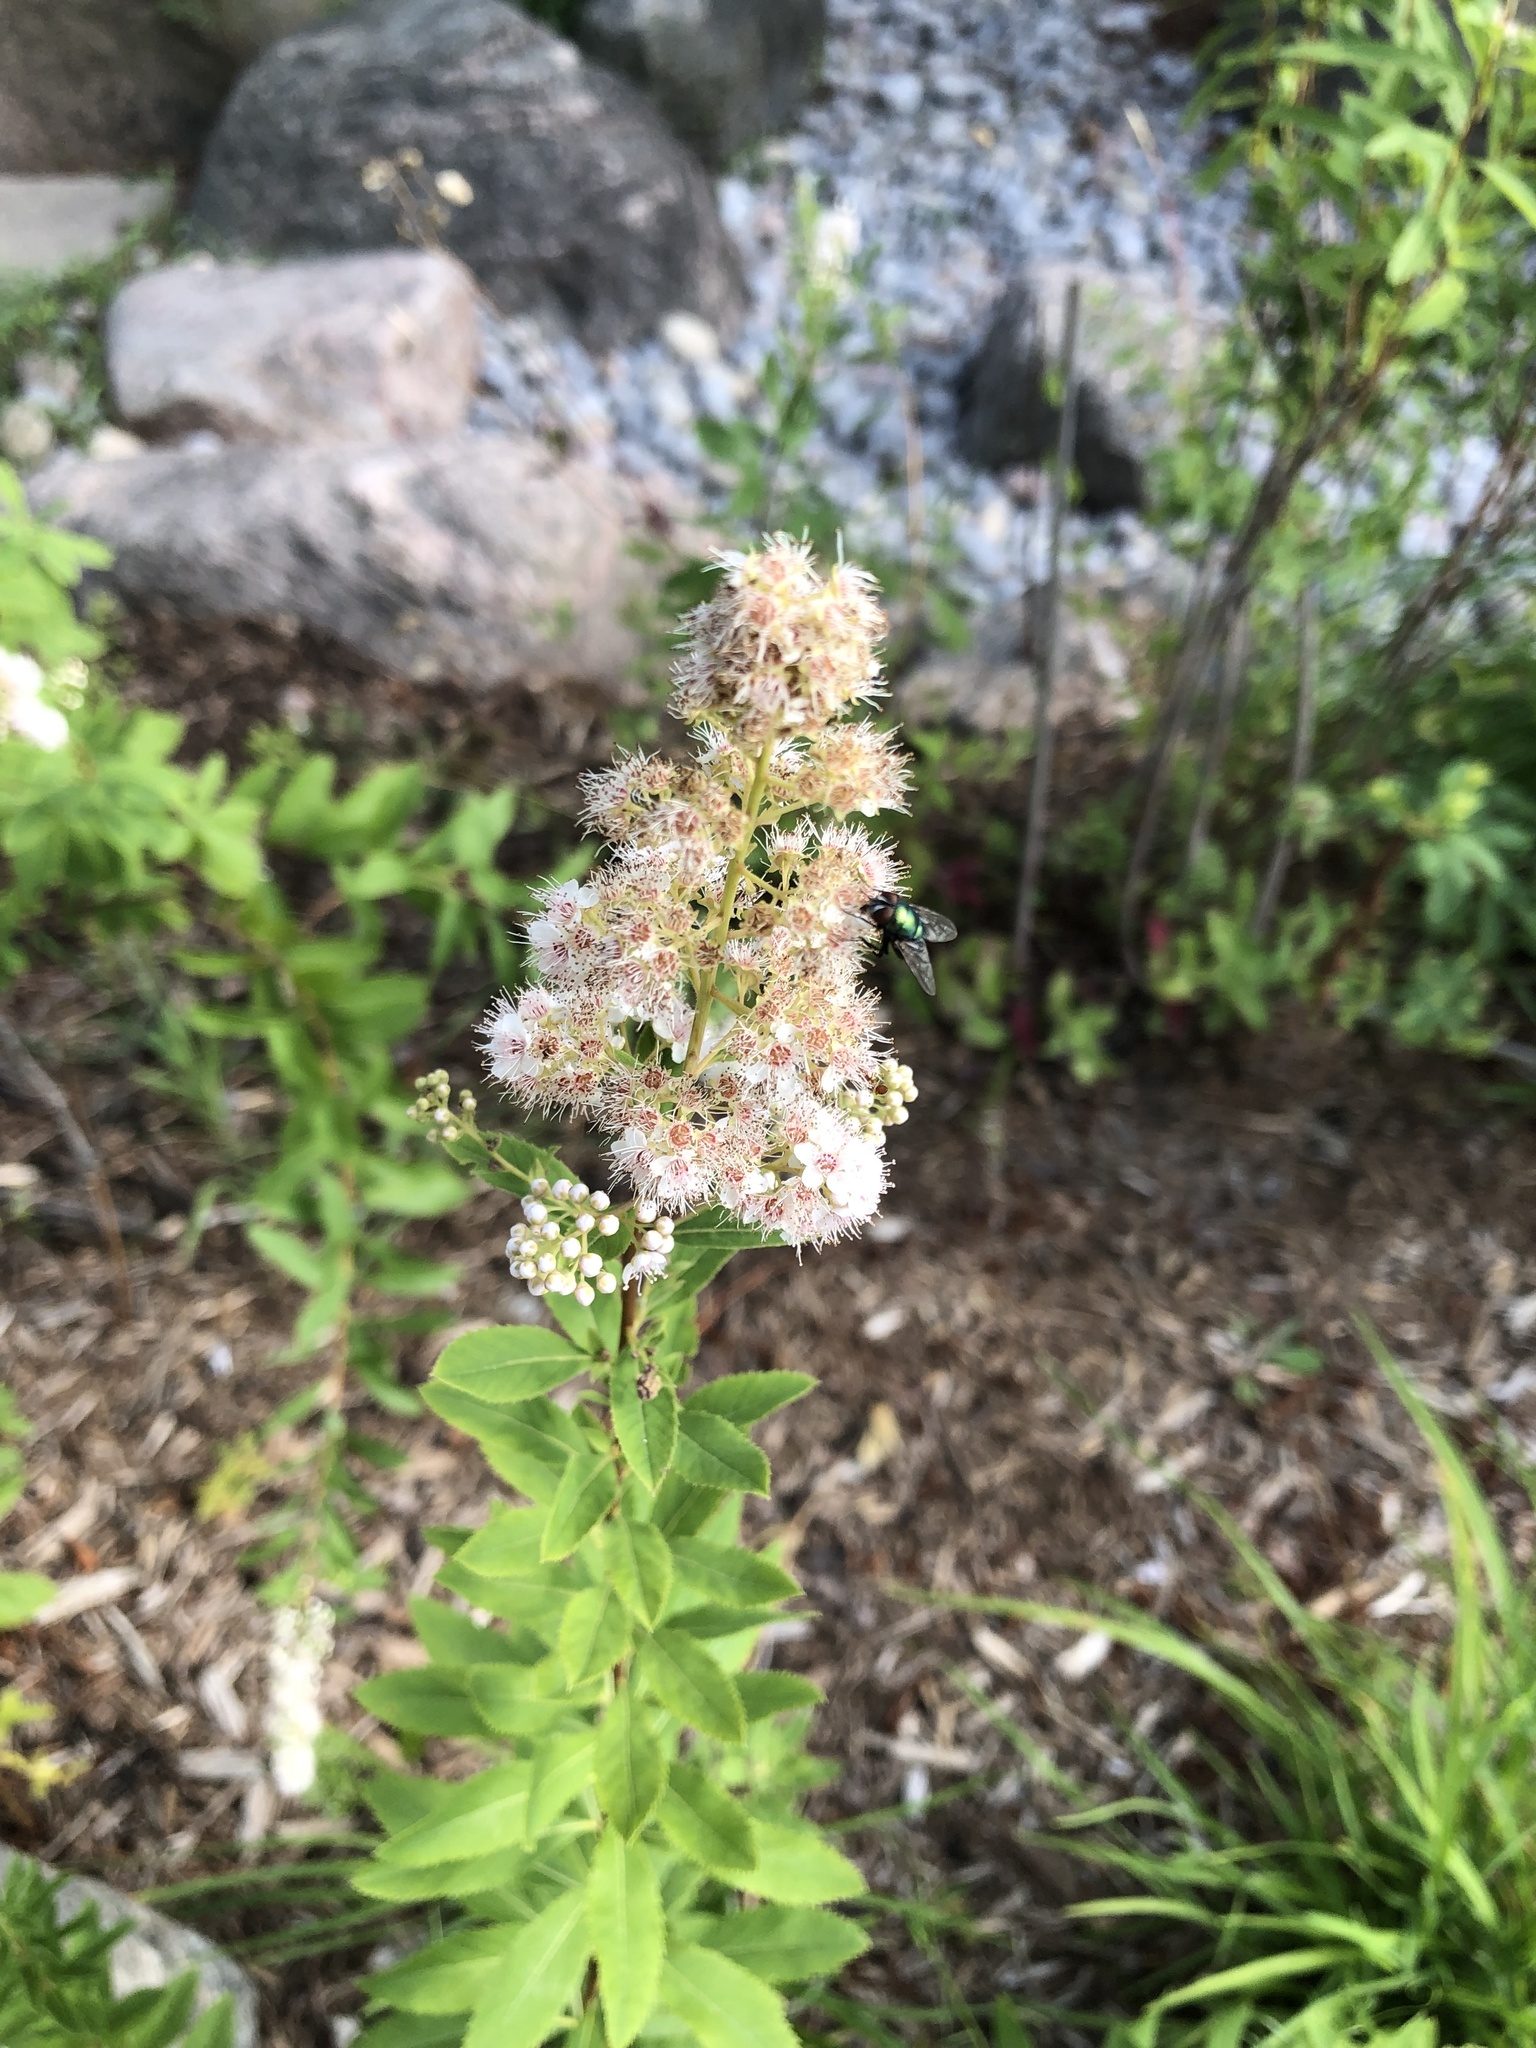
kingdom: Plantae
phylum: Tracheophyta
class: Magnoliopsida
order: Rosales
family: Rosaceae
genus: Spiraea
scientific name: Spiraea alba
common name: Pale bridewort
